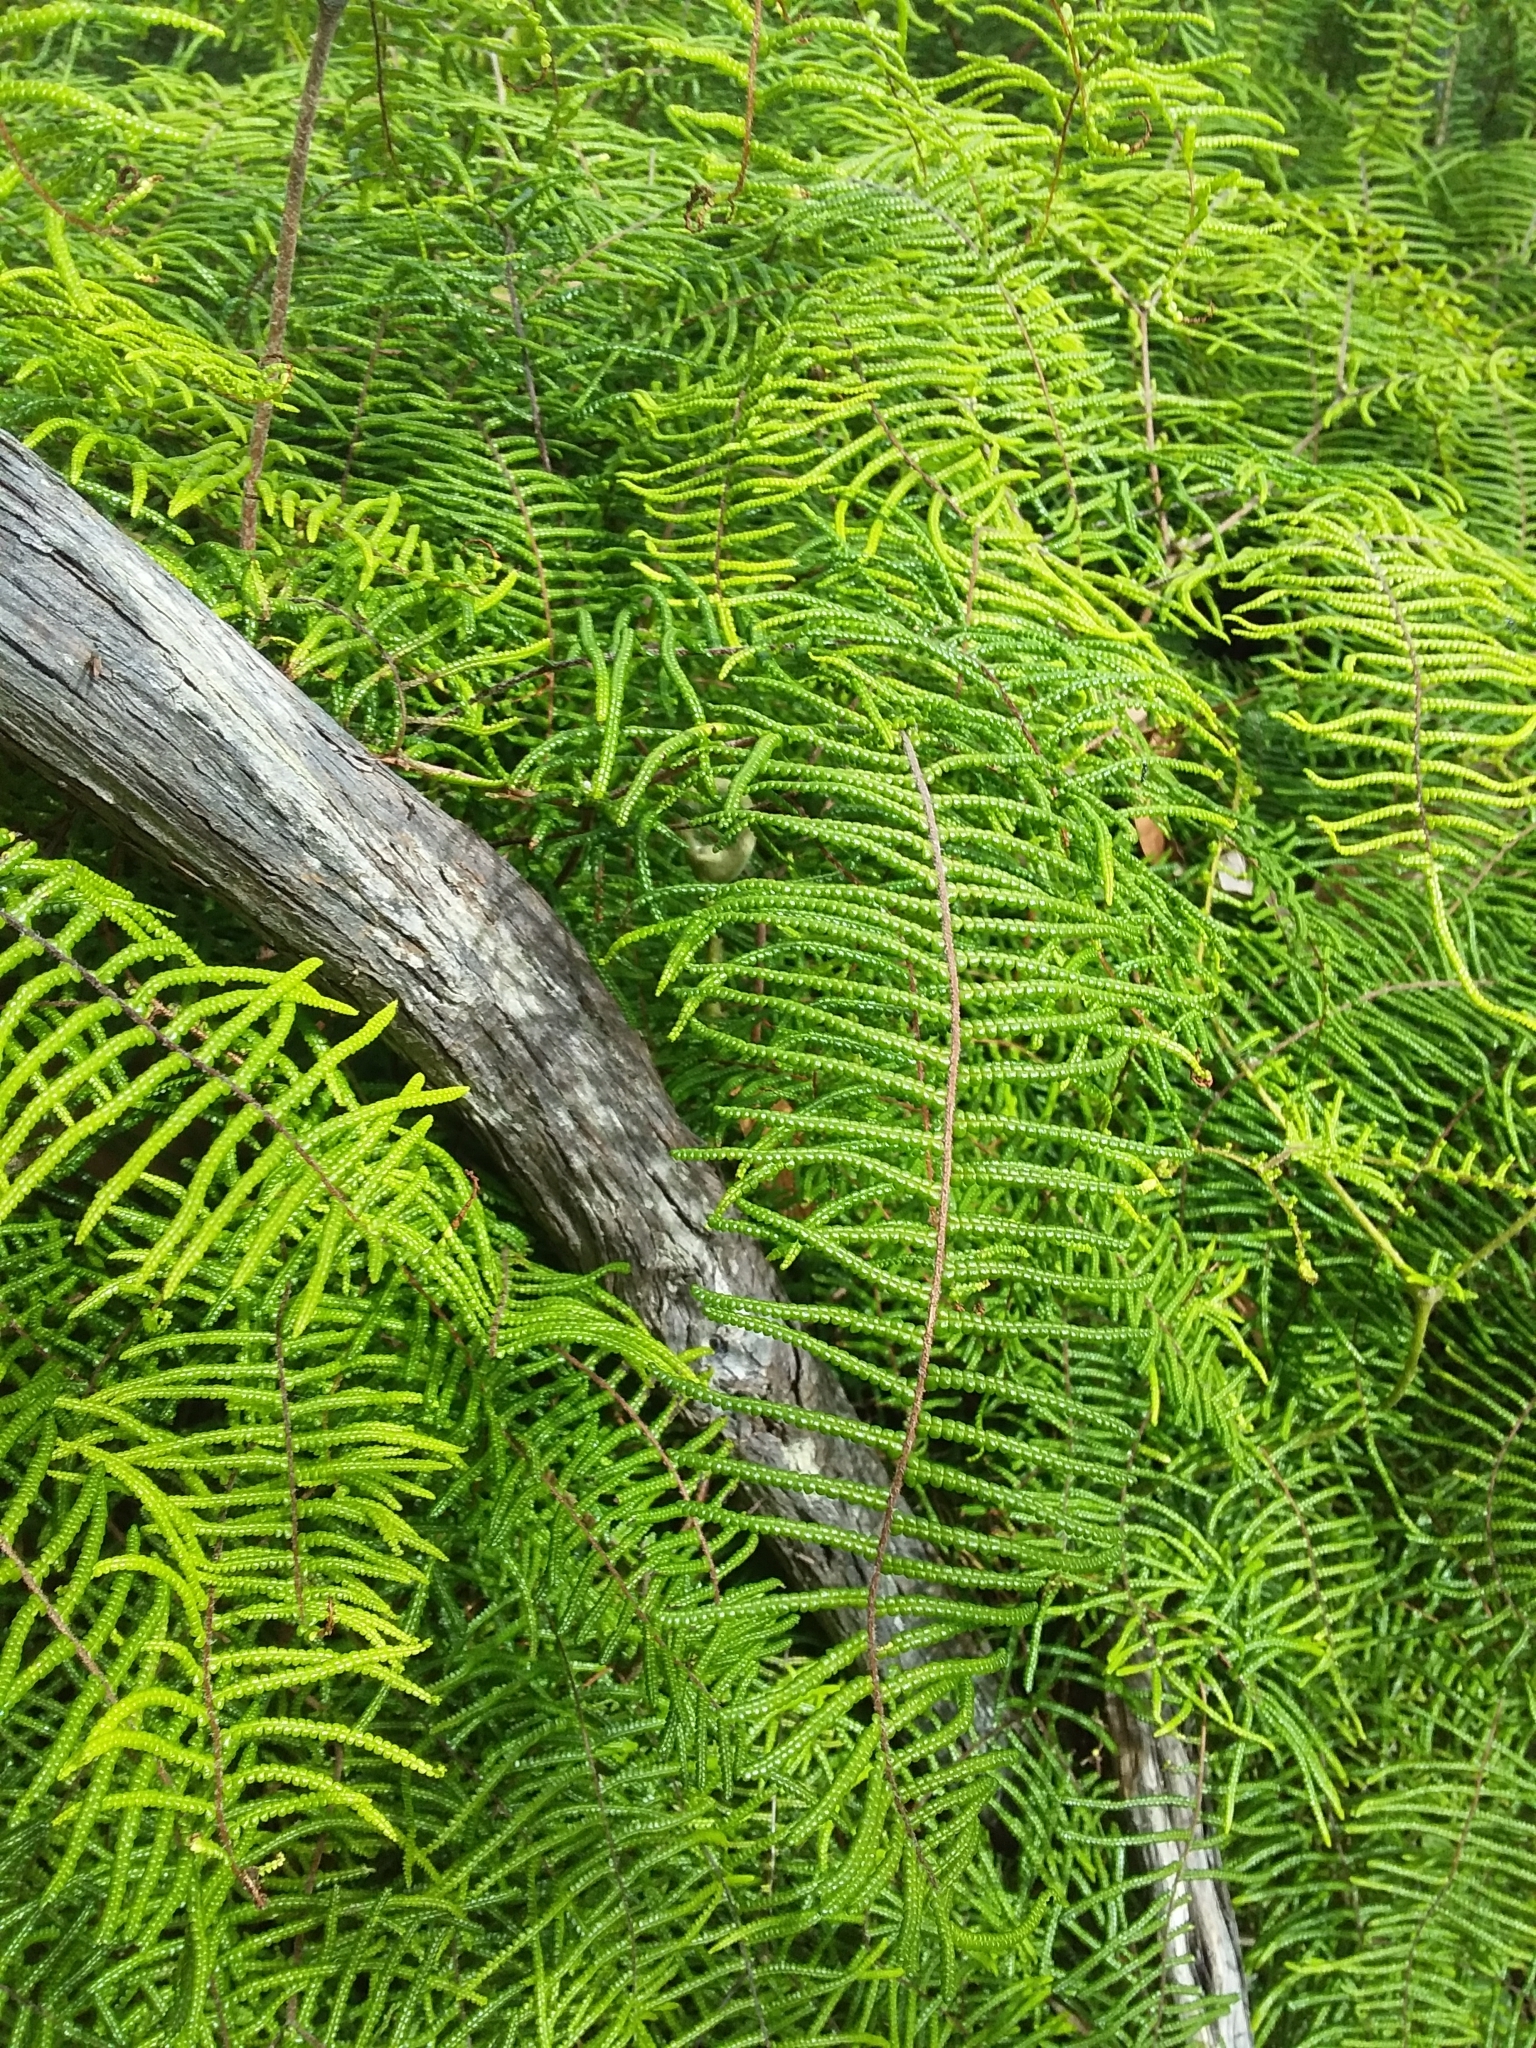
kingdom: Plantae
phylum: Tracheophyta
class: Polypodiopsida
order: Gleicheniales
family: Gleicheniaceae
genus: Gleichenia
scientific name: Gleichenia microphylla
